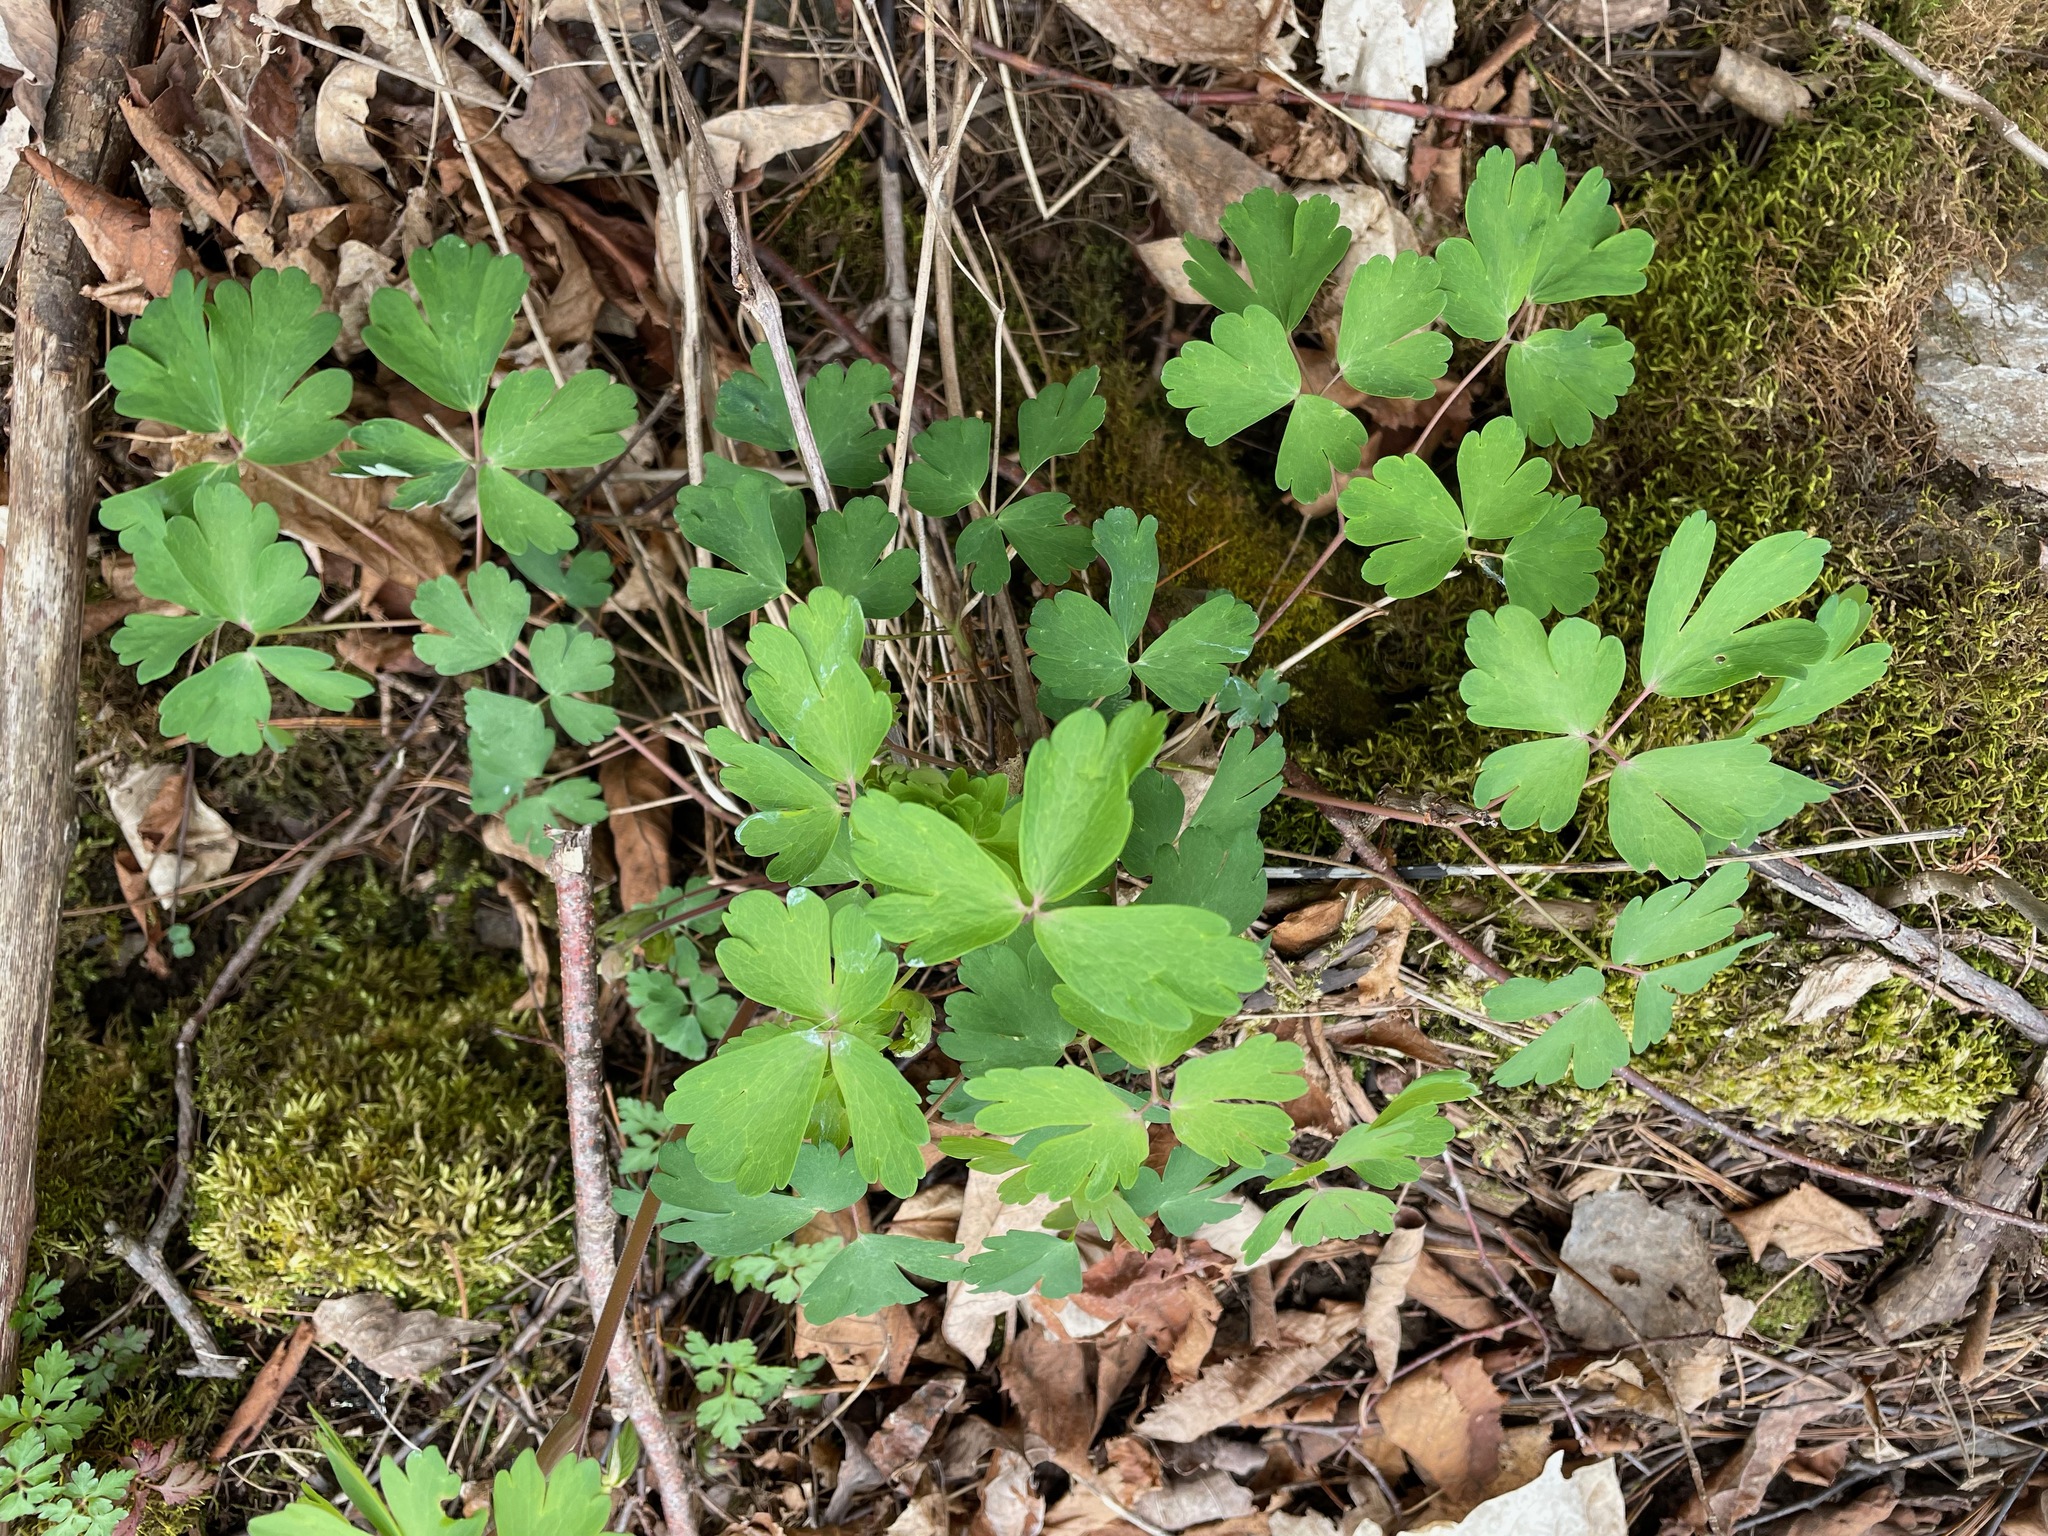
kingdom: Plantae
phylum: Tracheophyta
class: Magnoliopsida
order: Ranunculales
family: Ranunculaceae
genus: Aquilegia
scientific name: Aquilegia canadensis
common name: American columbine
